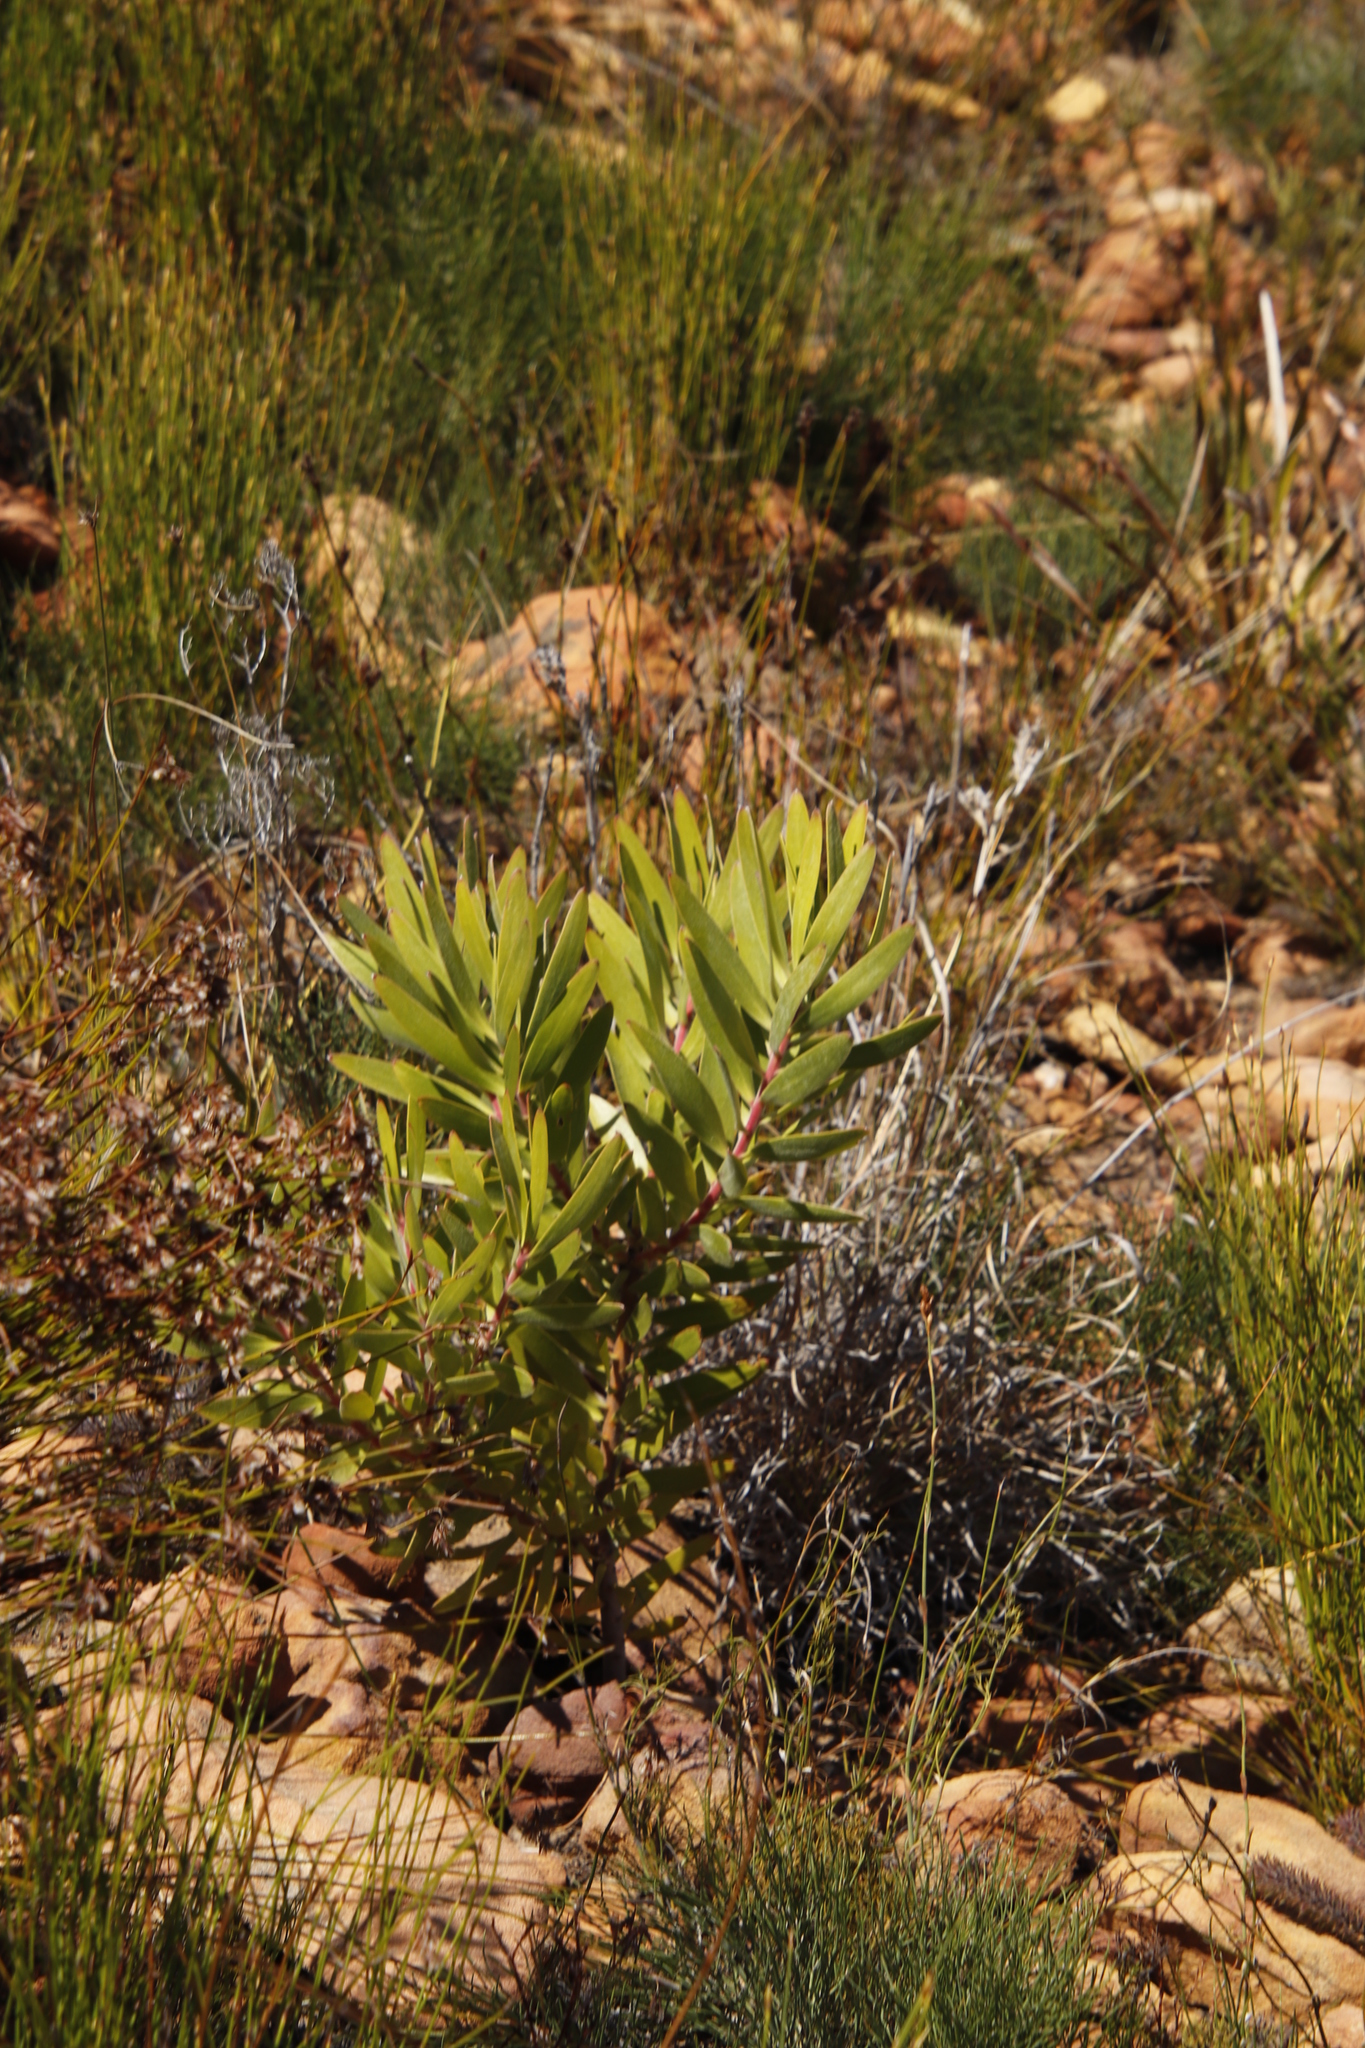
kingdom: Plantae
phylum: Tracheophyta
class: Magnoliopsida
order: Proteales
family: Proteaceae
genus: Leucadendron
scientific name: Leucadendron laureolum
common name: Golden sunshinebush
